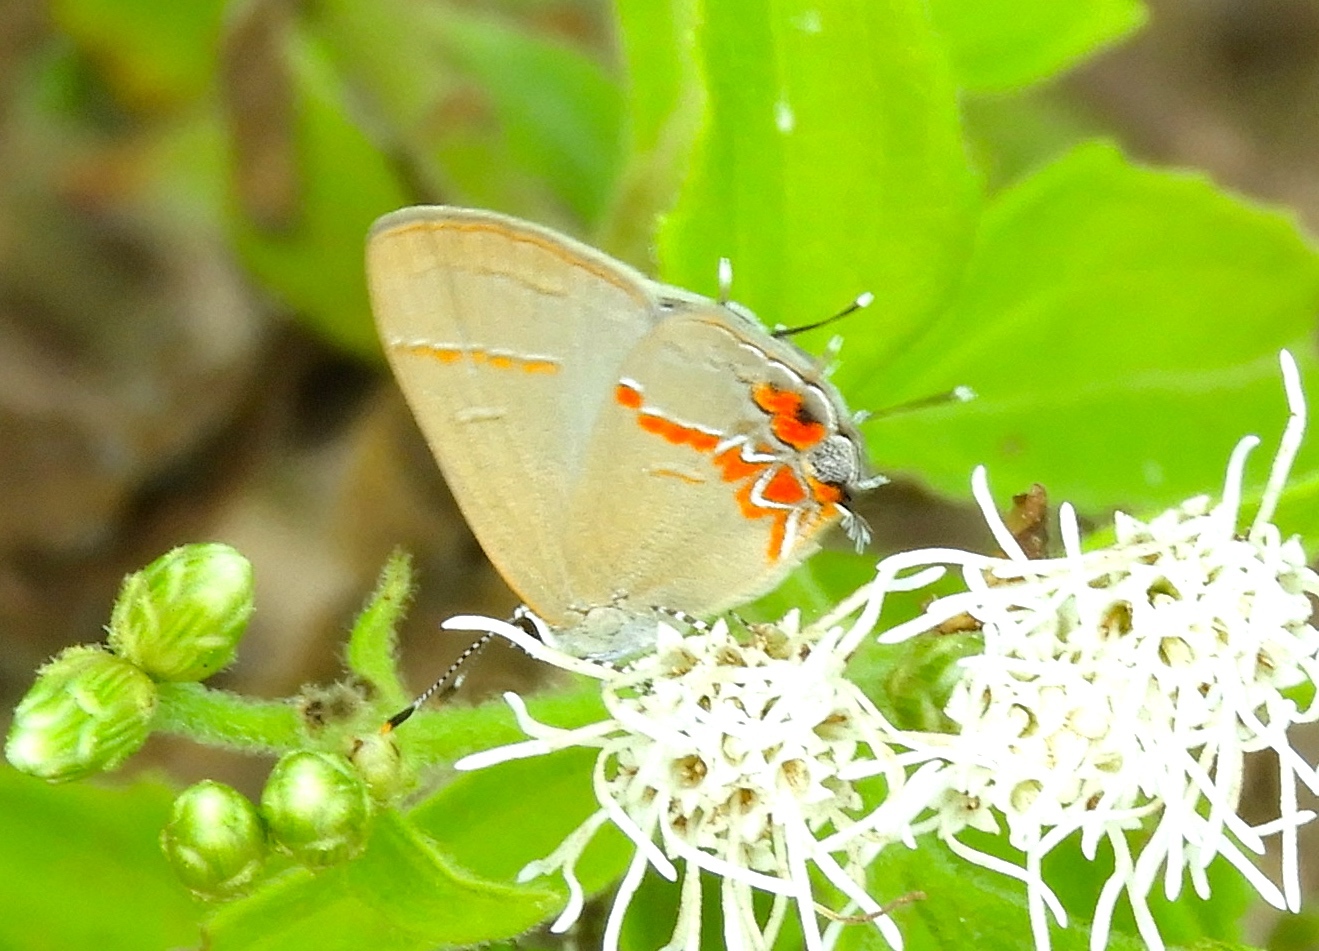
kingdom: Animalia
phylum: Arthropoda
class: Insecta
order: Lepidoptera
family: Lycaenidae
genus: Calycopis
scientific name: Calycopis partunda
